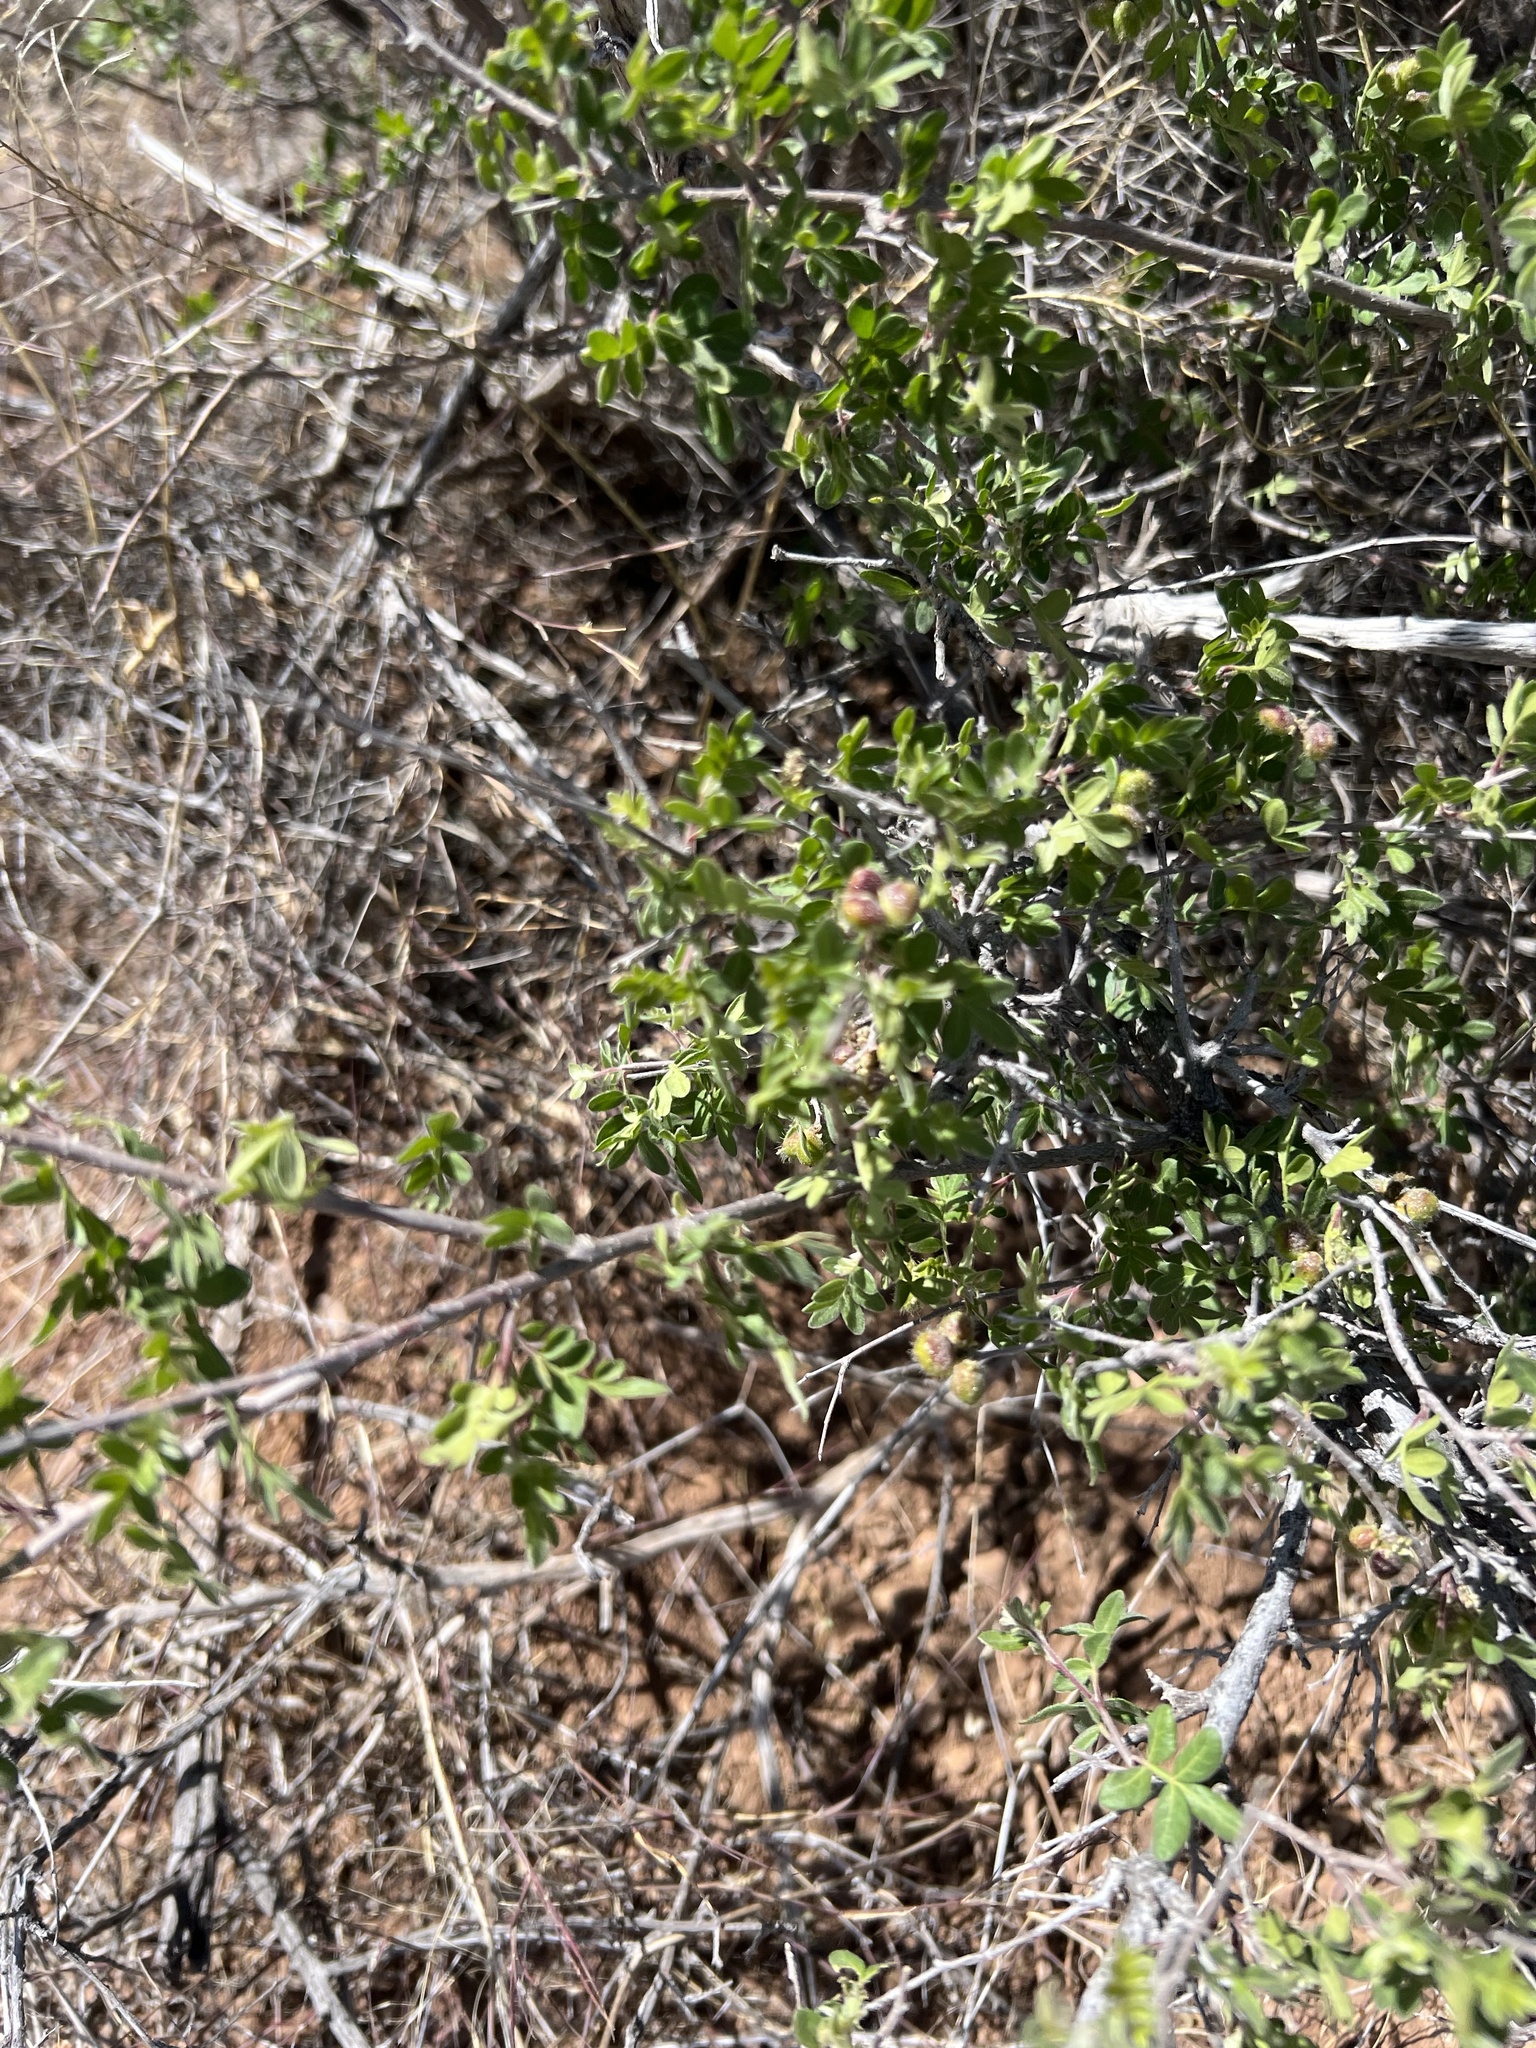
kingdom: Plantae
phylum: Tracheophyta
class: Magnoliopsida
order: Sapindales
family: Anacardiaceae
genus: Rhus
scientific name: Rhus microphylla
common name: Desert sumac
